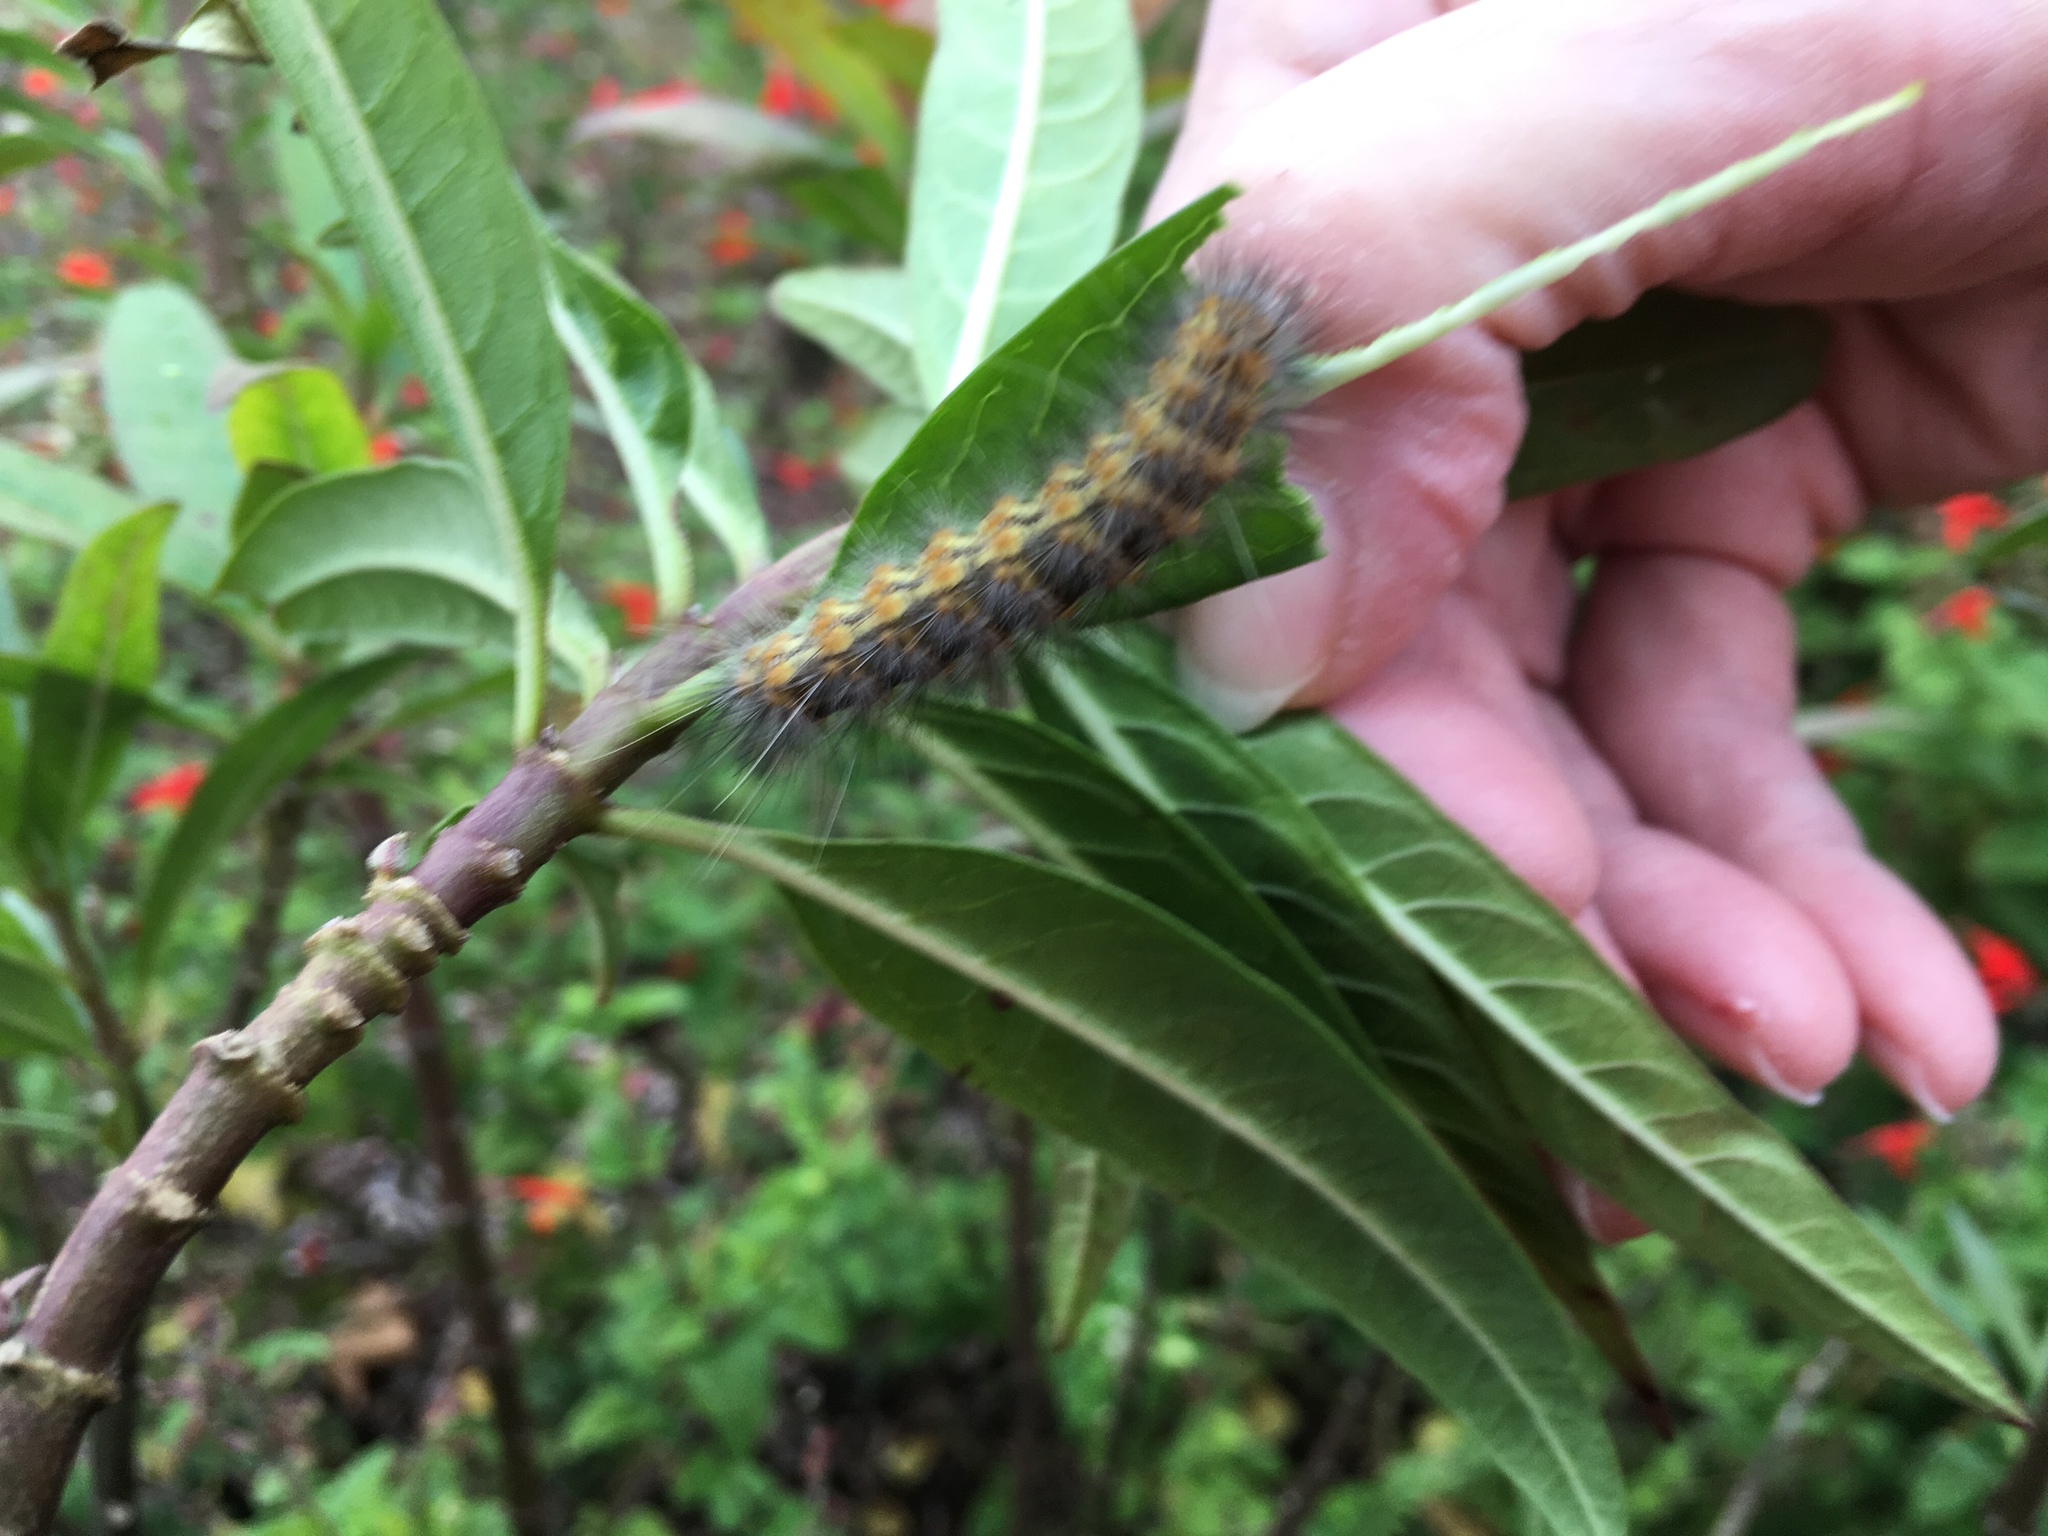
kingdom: Animalia
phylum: Arthropoda
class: Insecta
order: Lepidoptera
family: Erebidae
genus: Estigmene
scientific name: Estigmene acrea
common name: Salt marsh moth
